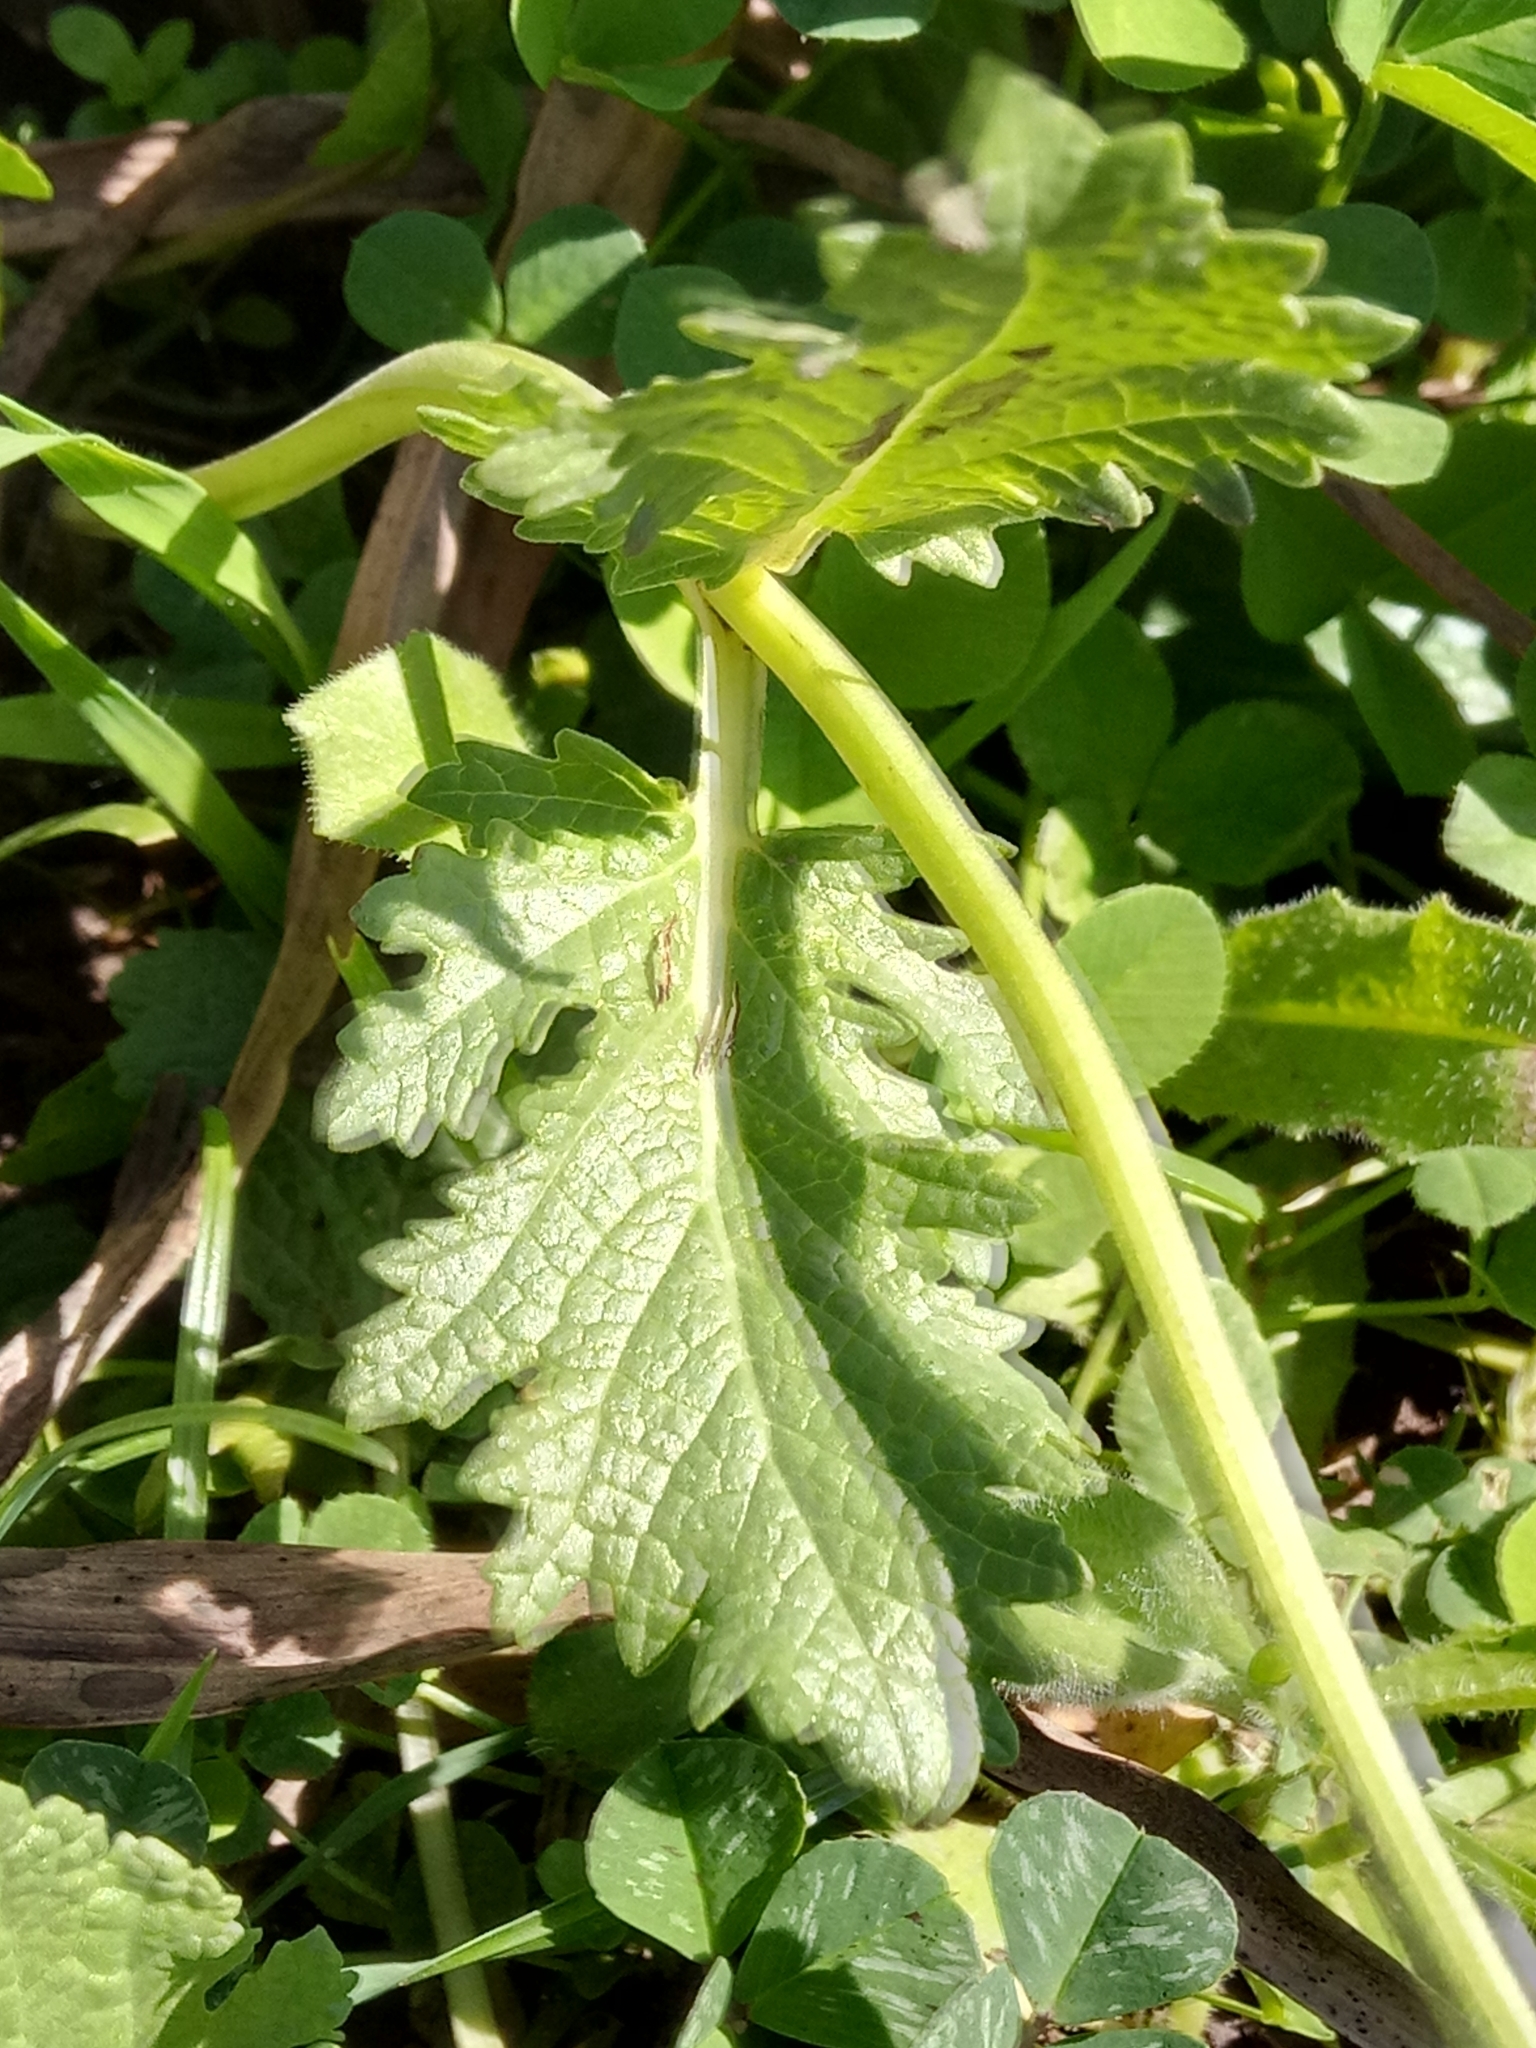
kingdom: Plantae
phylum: Tracheophyta
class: Magnoliopsida
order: Lamiales
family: Lamiaceae
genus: Salvia
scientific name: Salvia verbenaca
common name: Wild clary
